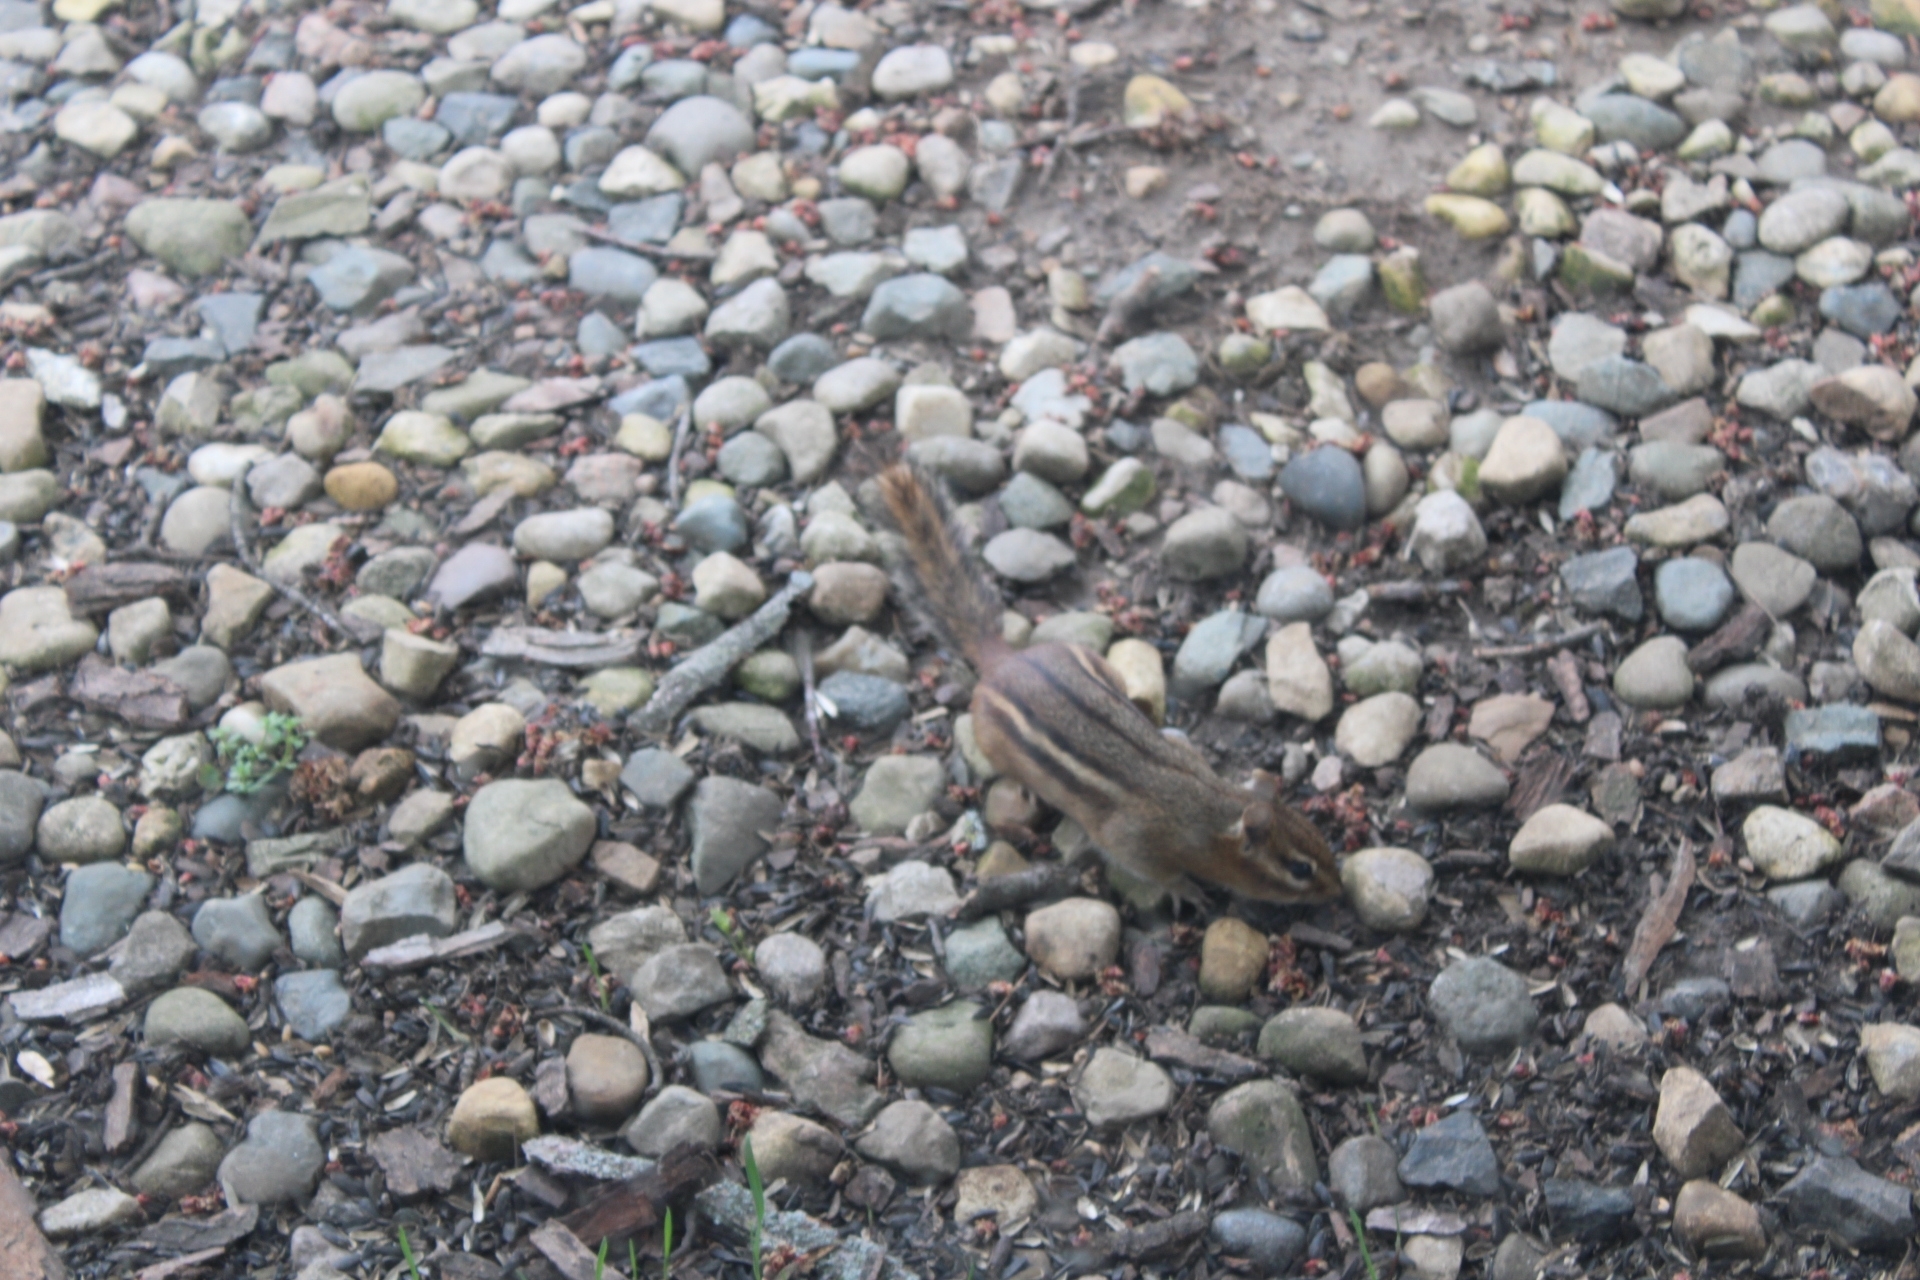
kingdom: Animalia
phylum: Chordata
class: Mammalia
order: Rodentia
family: Sciuridae
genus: Tamias
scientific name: Tamias striatus
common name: Eastern chipmunk
